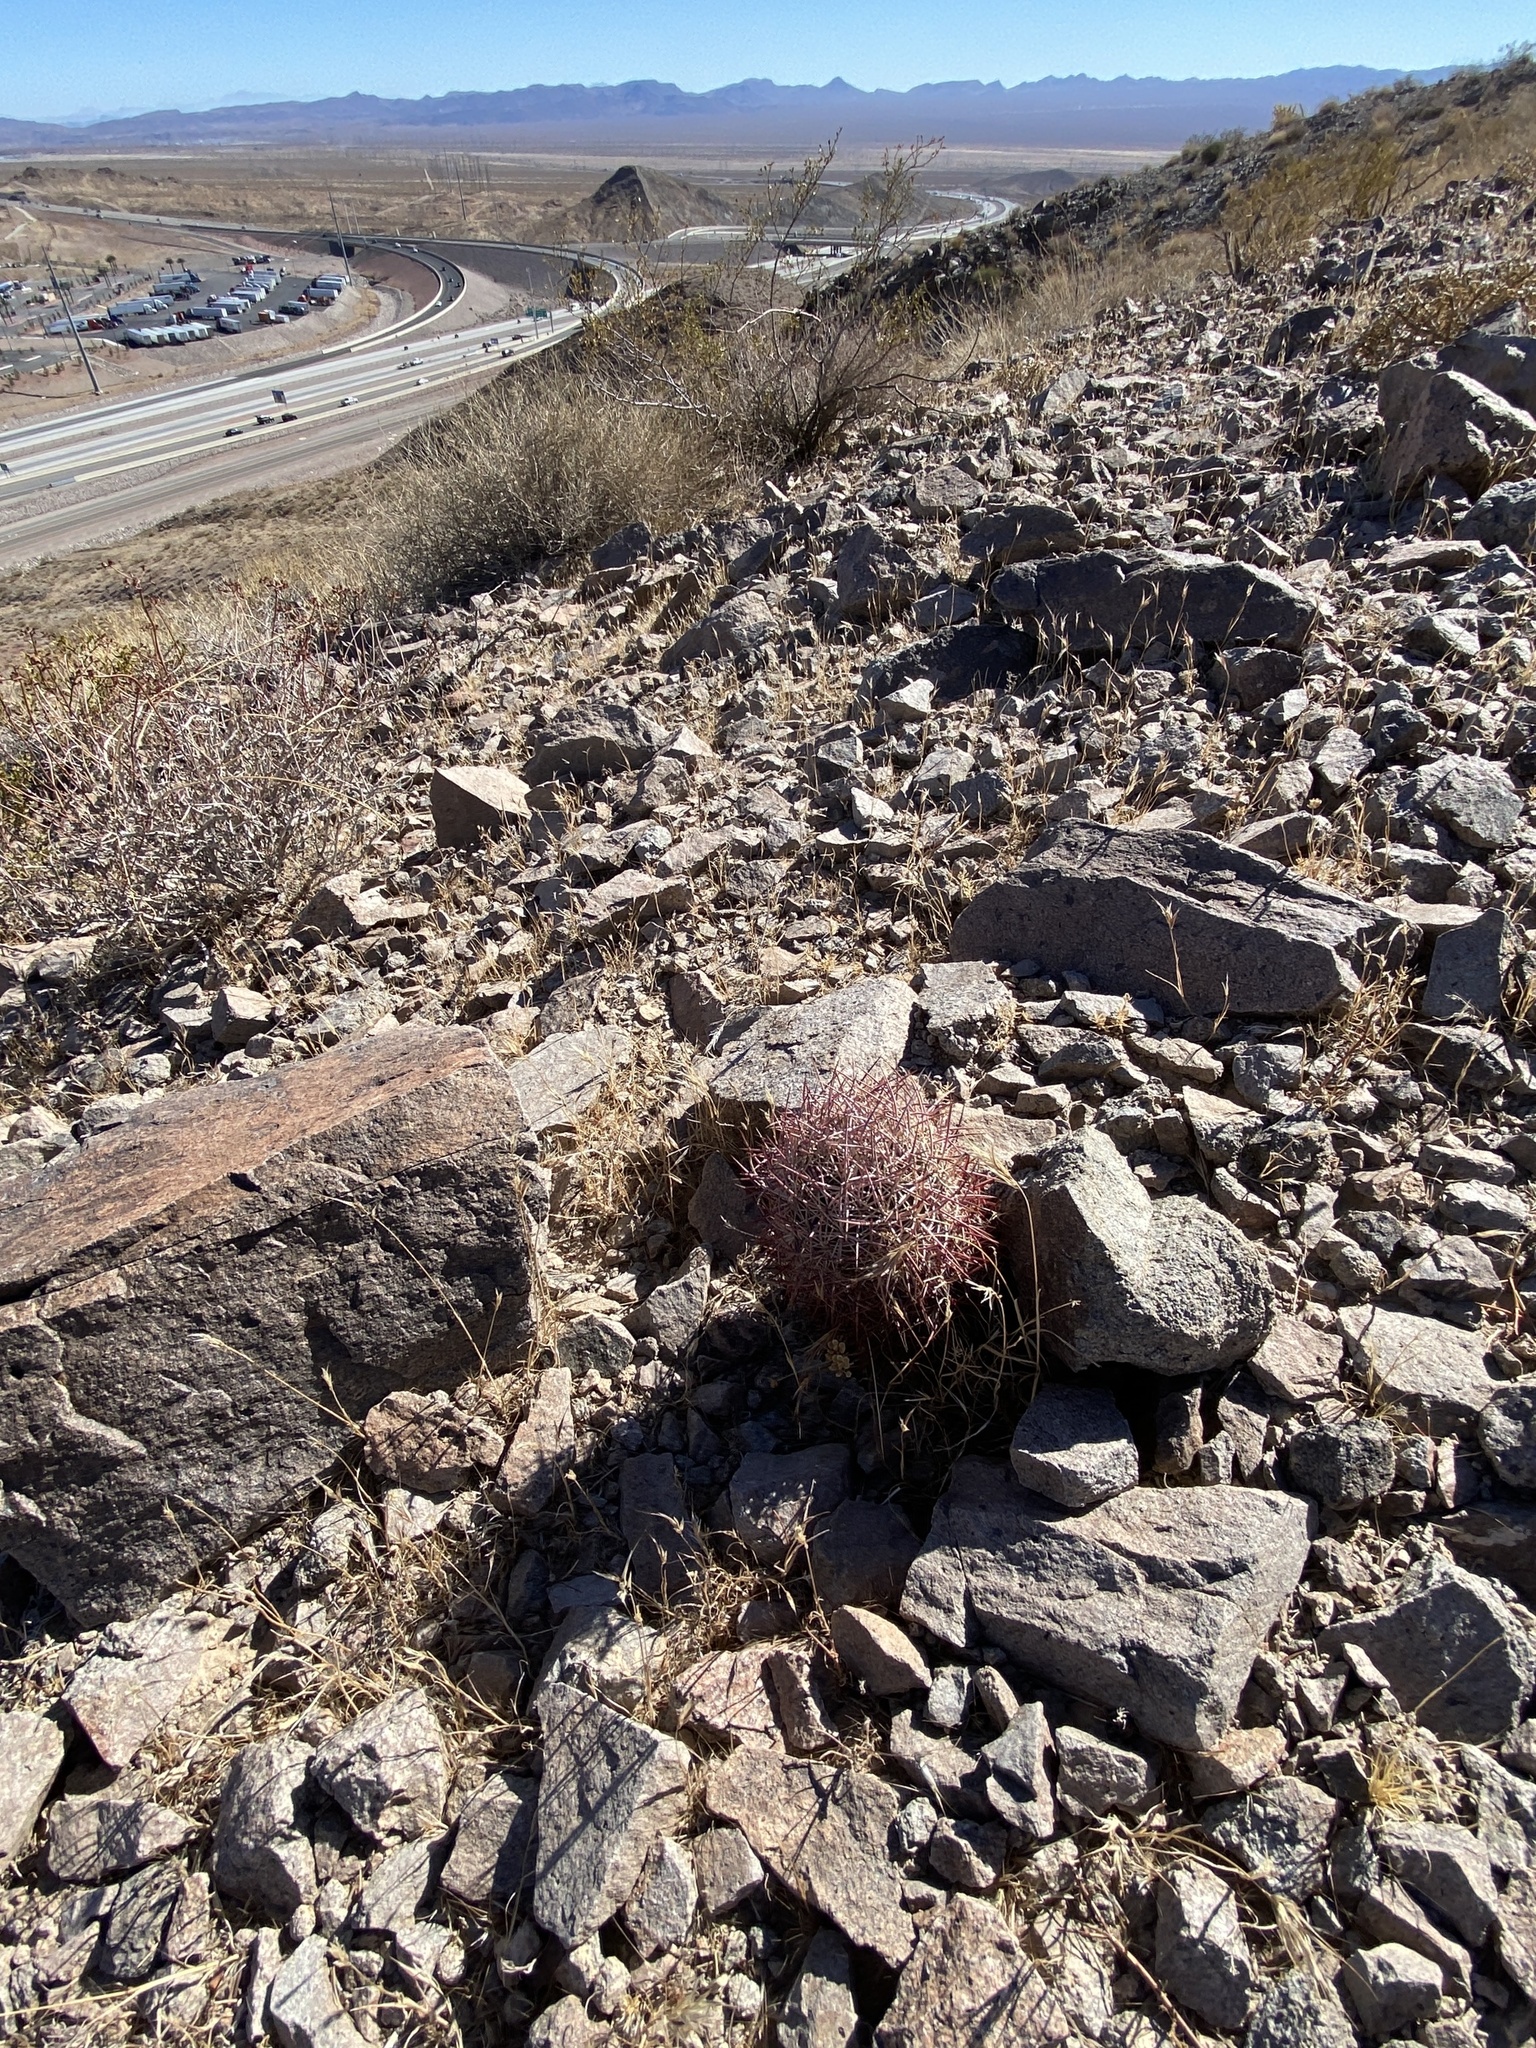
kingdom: Plantae
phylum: Tracheophyta
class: Magnoliopsida
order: Caryophyllales
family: Cactaceae
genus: Sclerocactus
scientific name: Sclerocactus johnsonii
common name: Eight-spine fishhook cactus
